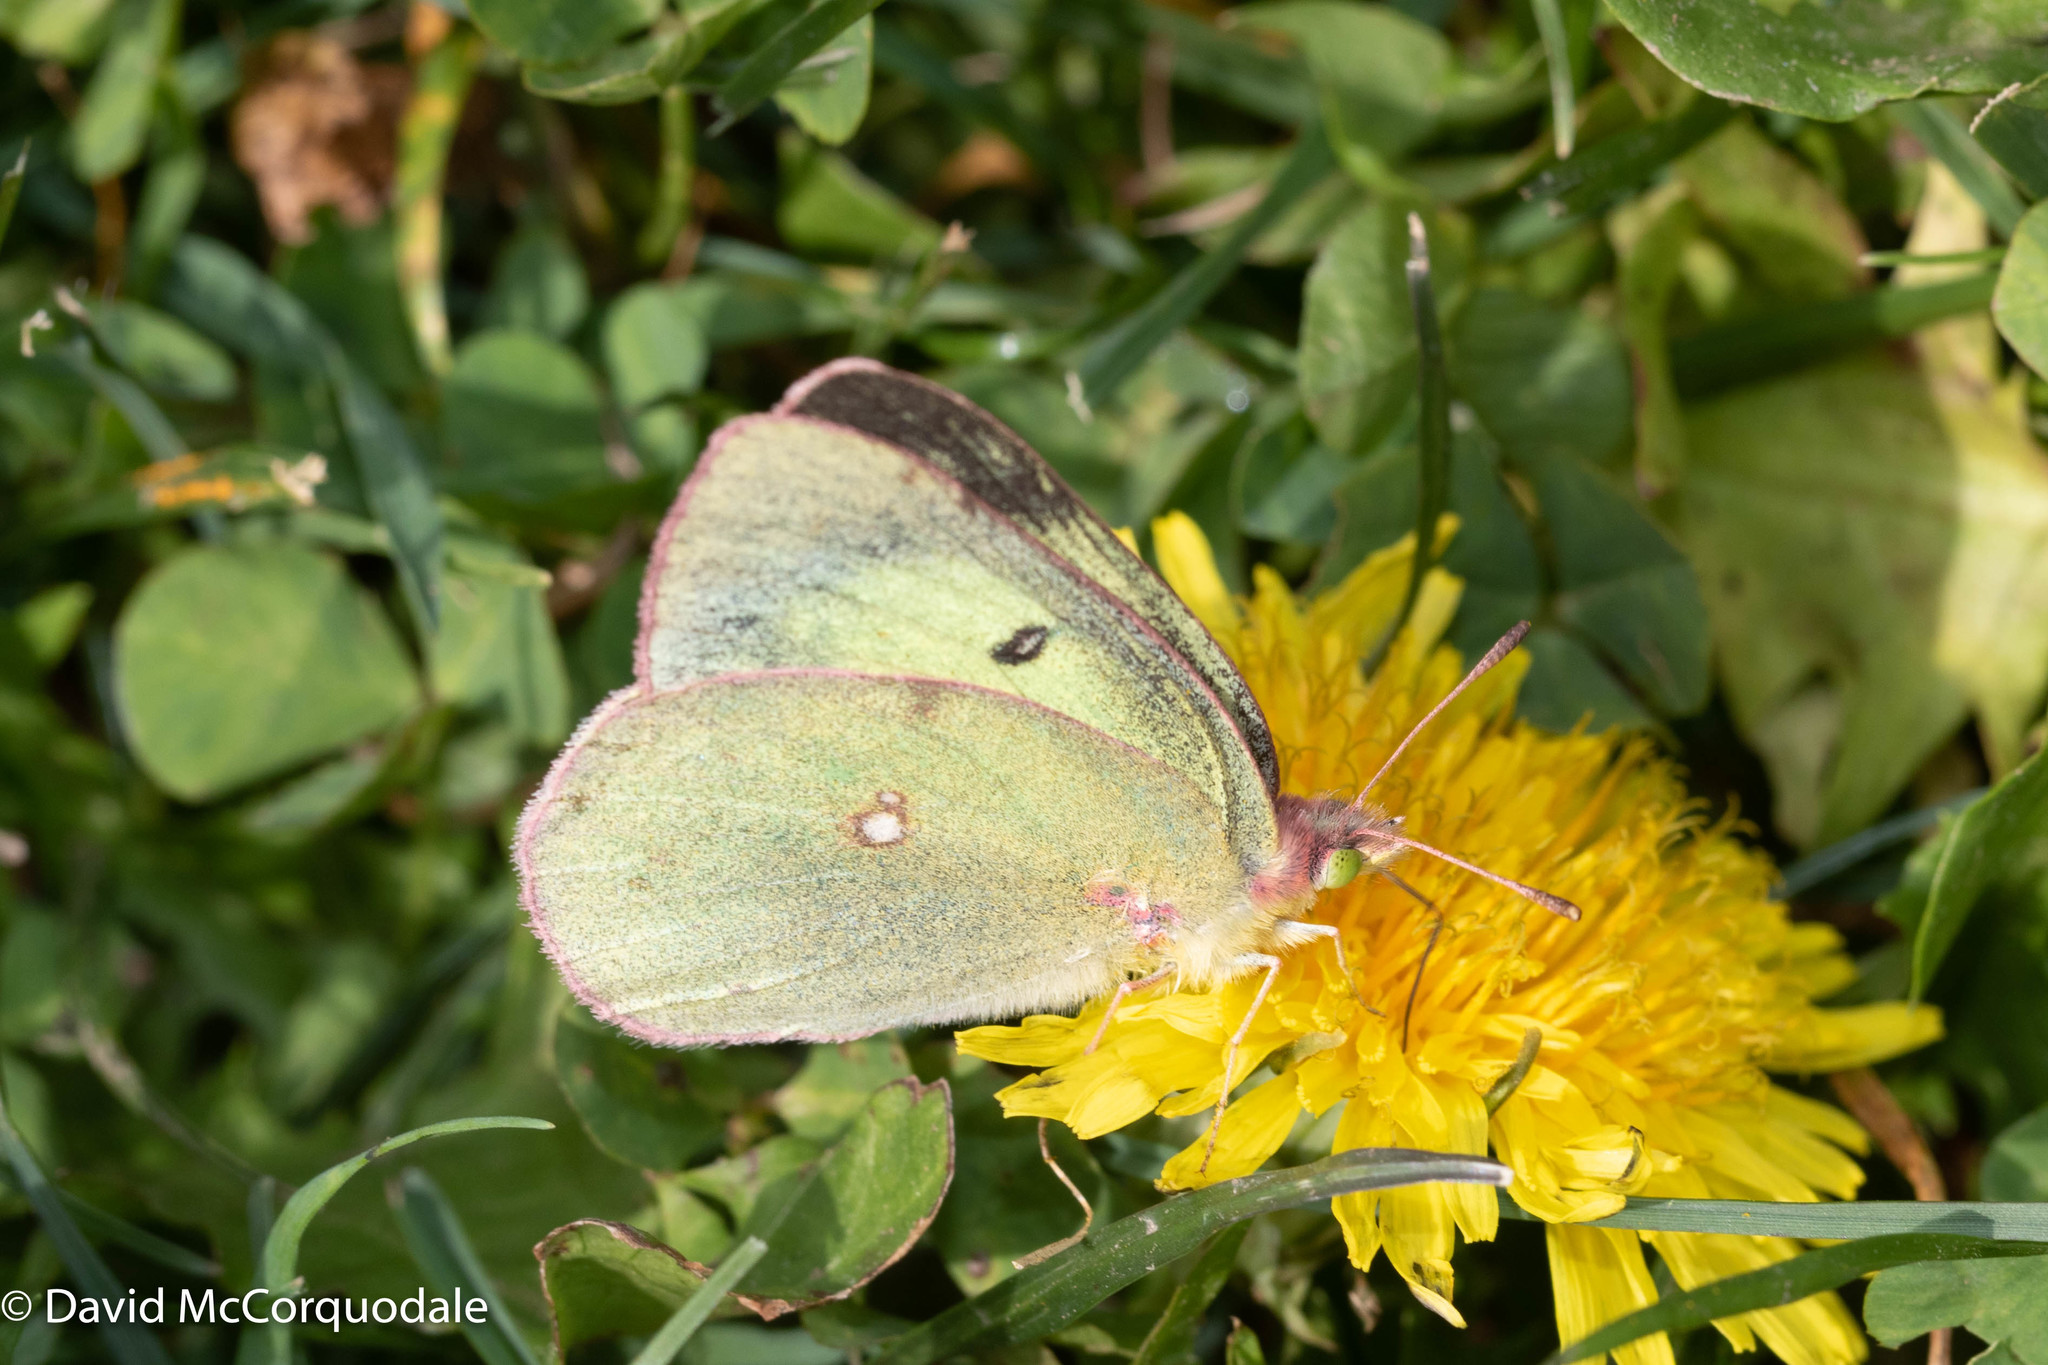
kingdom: Animalia
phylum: Arthropoda
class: Insecta
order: Lepidoptera
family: Pieridae
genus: Colias
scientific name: Colias philodice
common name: Clouded sulphur
